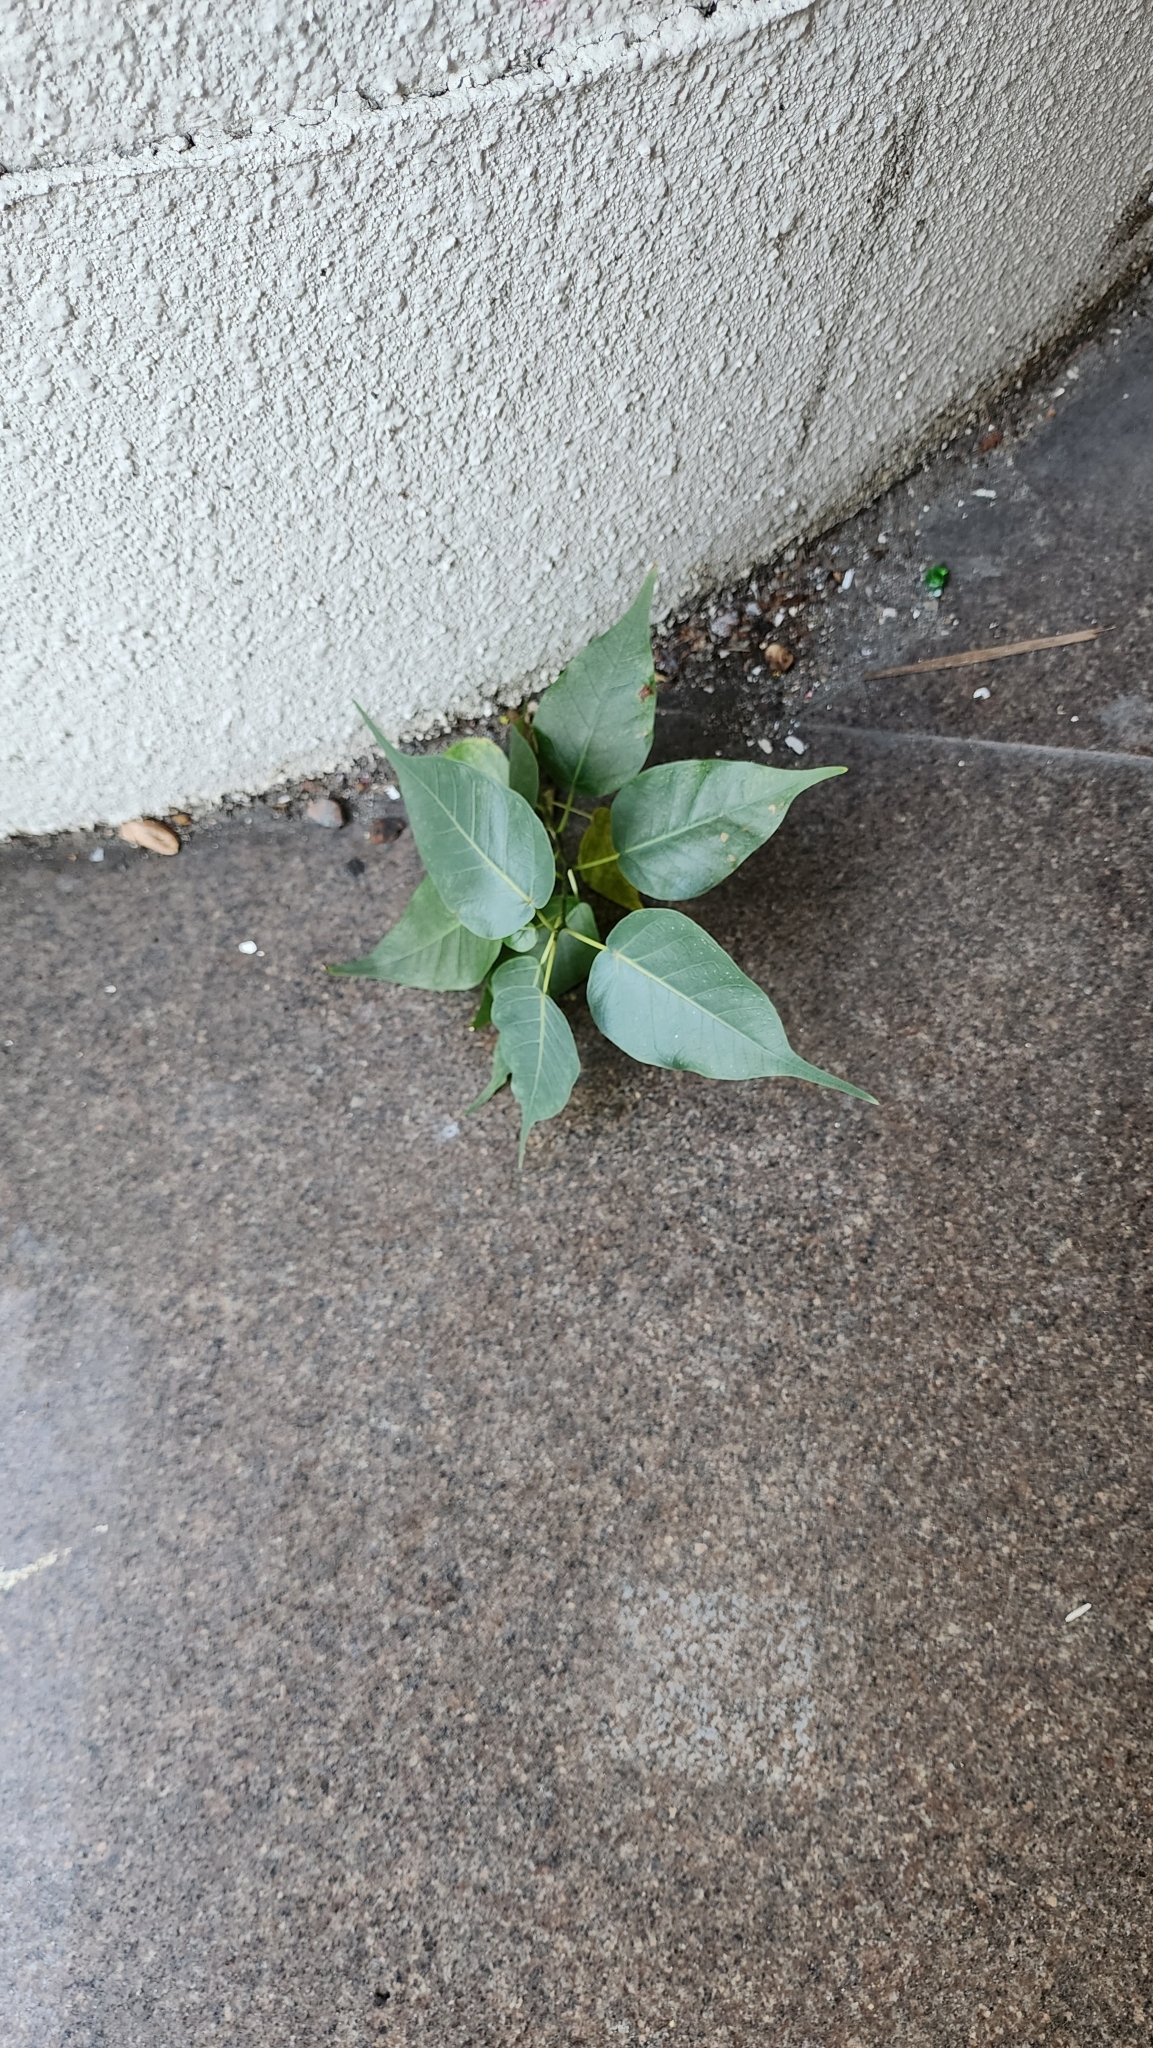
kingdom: Plantae
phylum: Tracheophyta
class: Magnoliopsida
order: Rosales
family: Moraceae
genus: Ficus
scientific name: Ficus religiosa
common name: Bodhi tree
